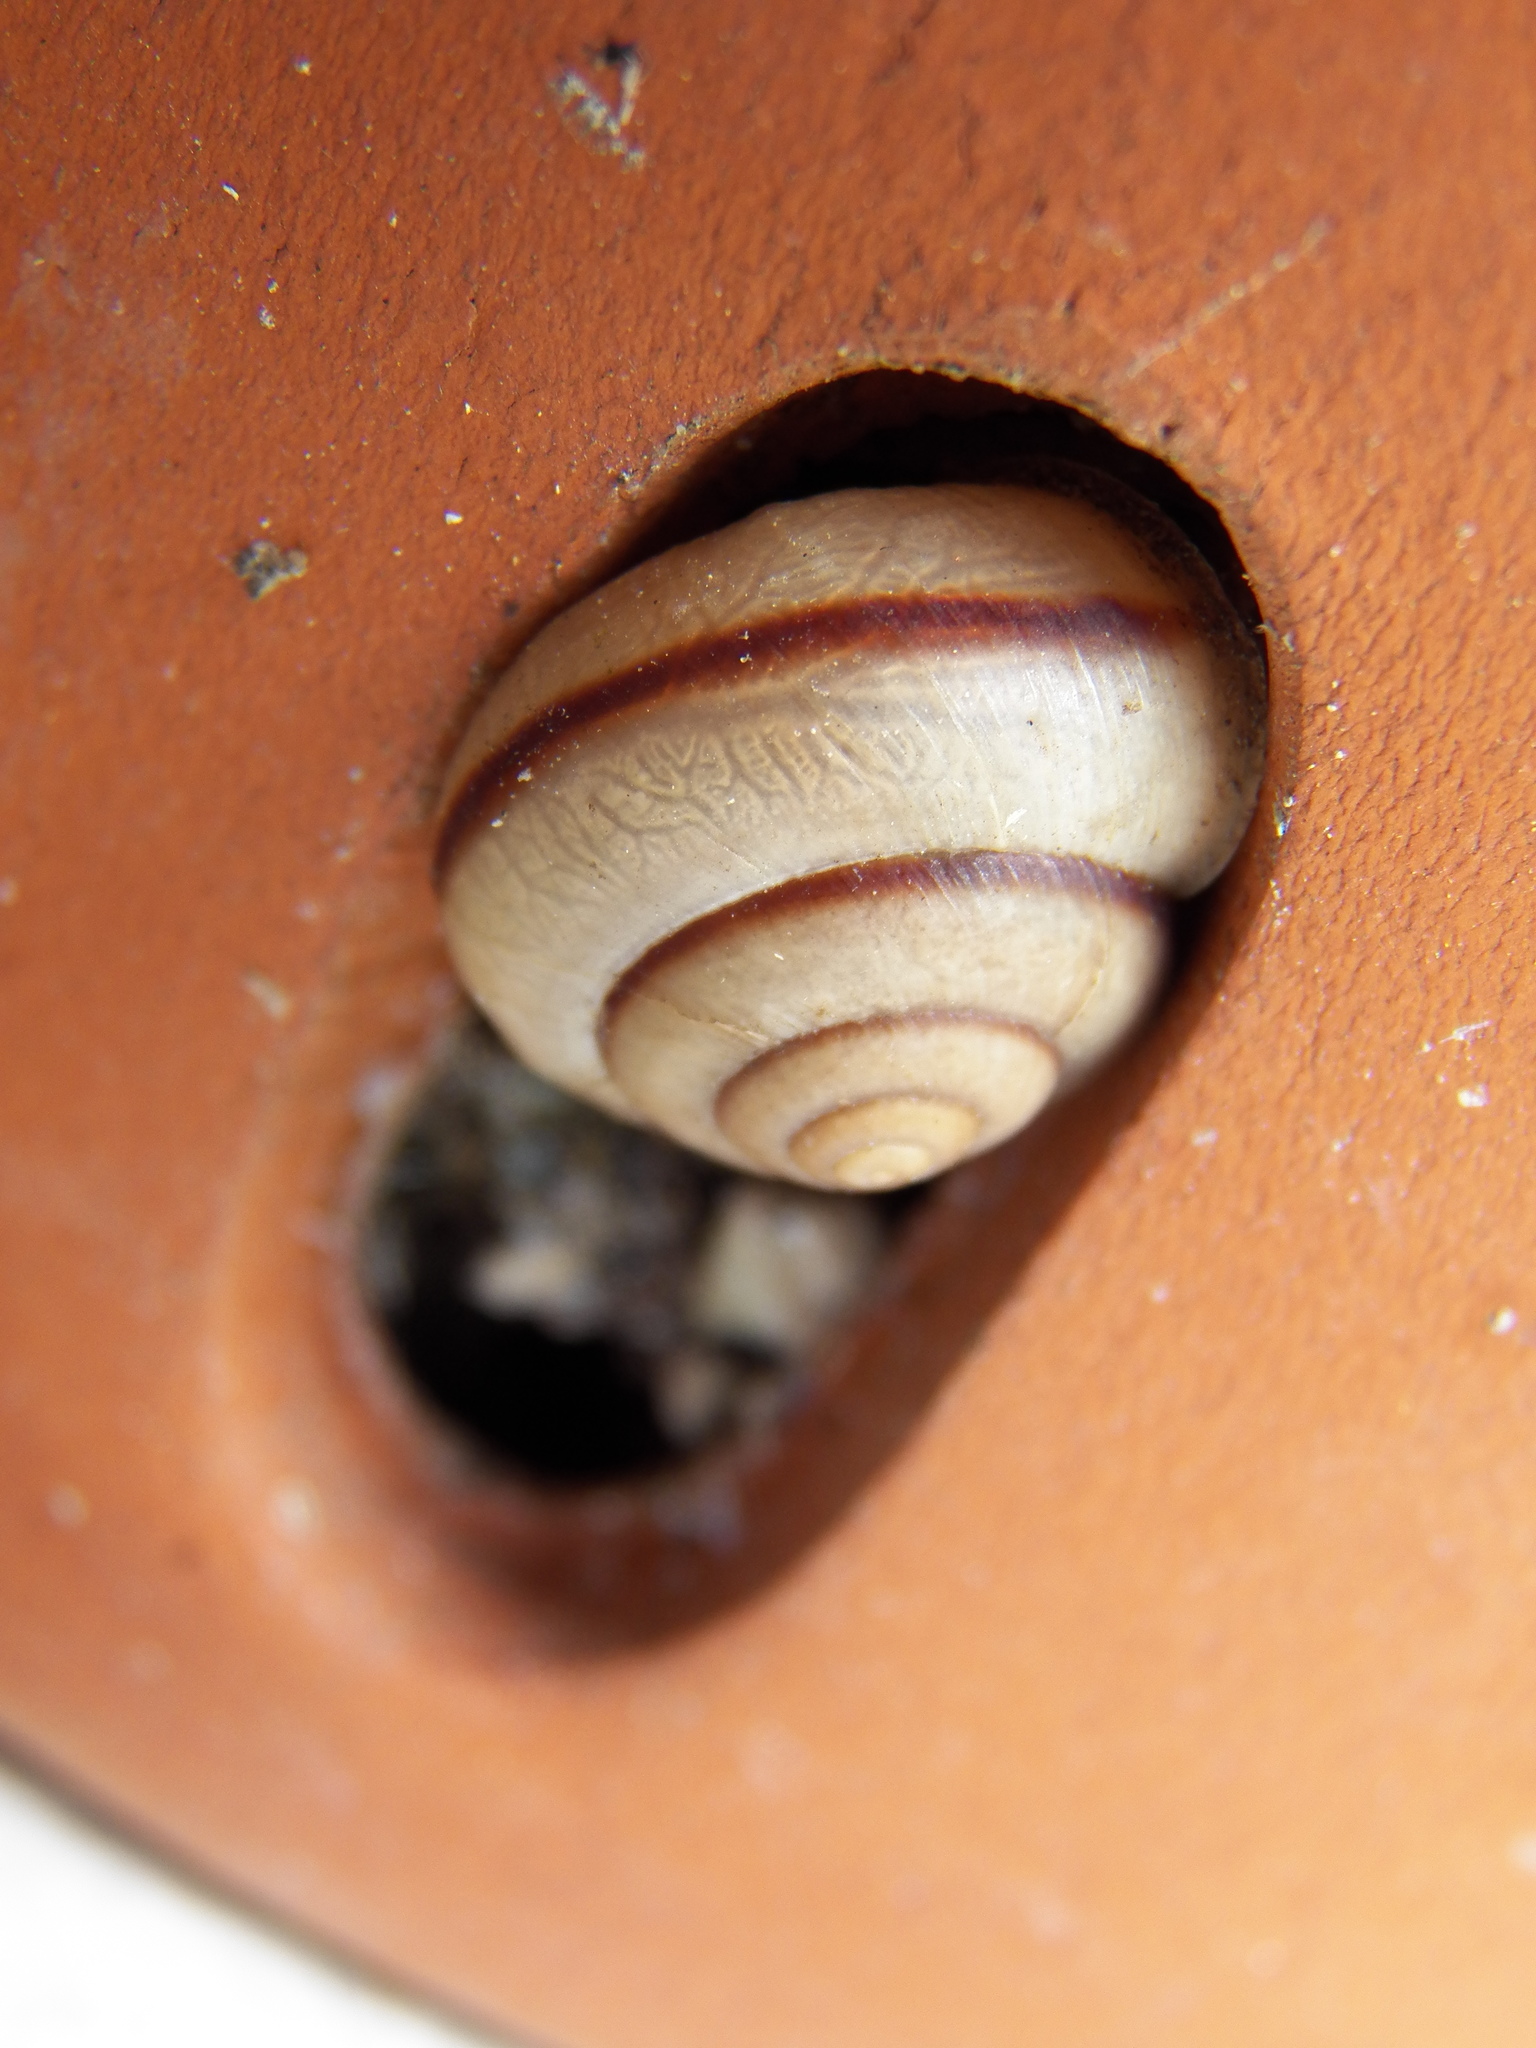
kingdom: Animalia
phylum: Mollusca
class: Gastropoda
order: Stylommatophora
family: Camaenidae
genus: Bradybaena
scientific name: Bradybaena similaris
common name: Asian trampsnail
